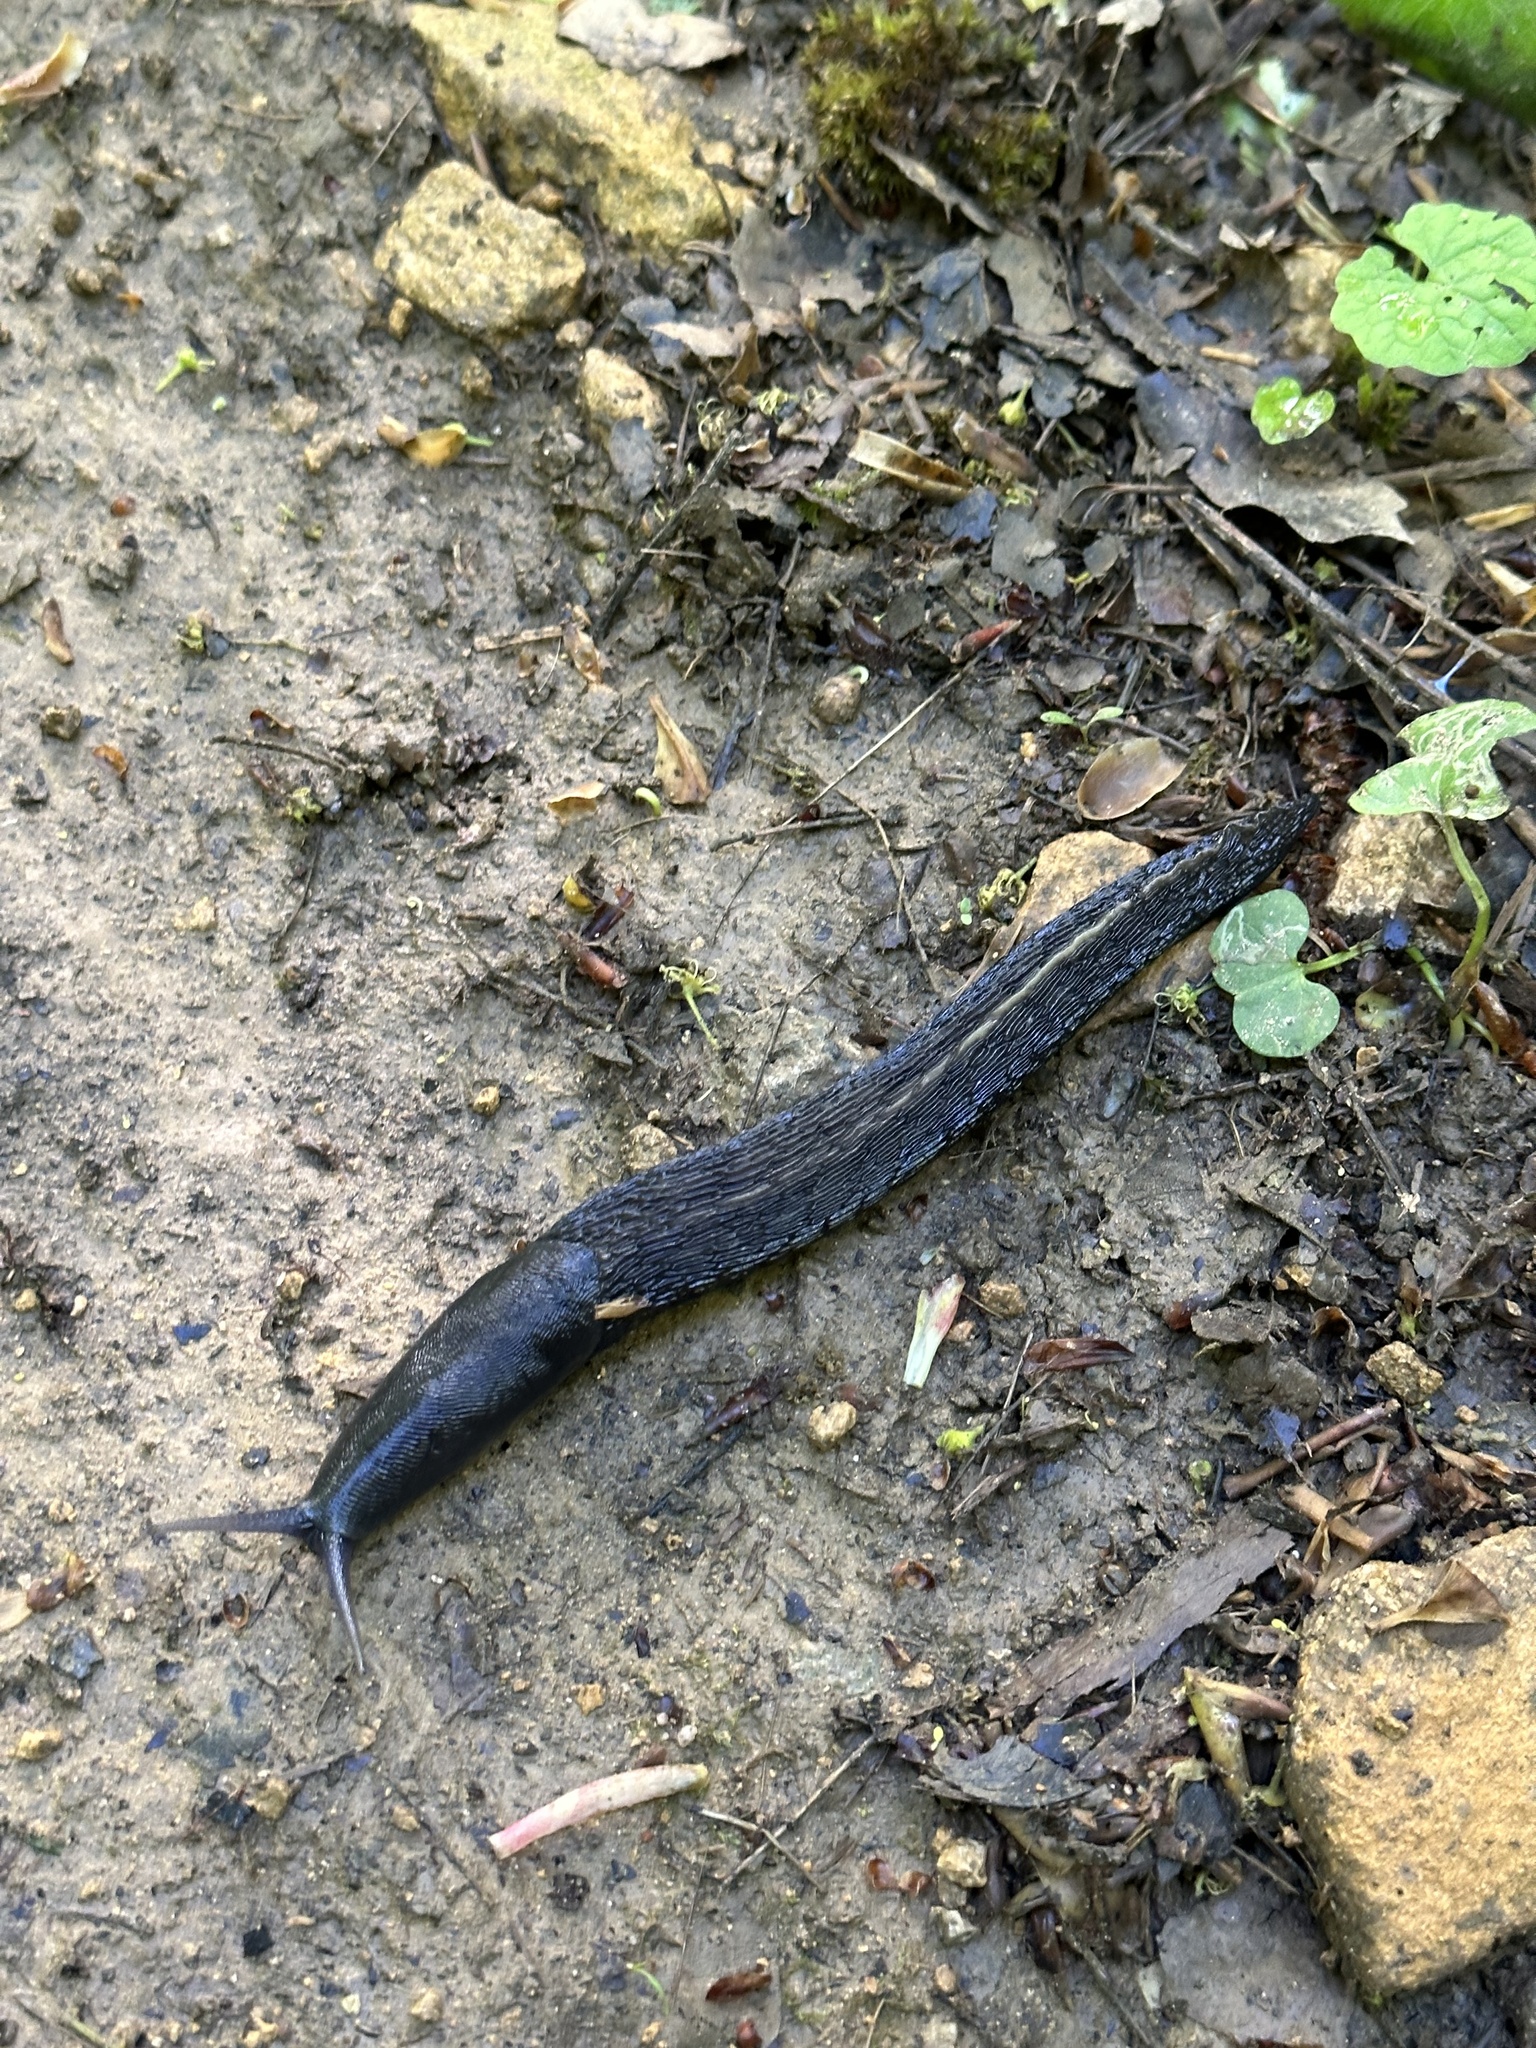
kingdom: Animalia
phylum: Mollusca
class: Gastropoda
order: Stylommatophora
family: Limacidae
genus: Limax
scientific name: Limax cinereoniger
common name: Ash-black slug
